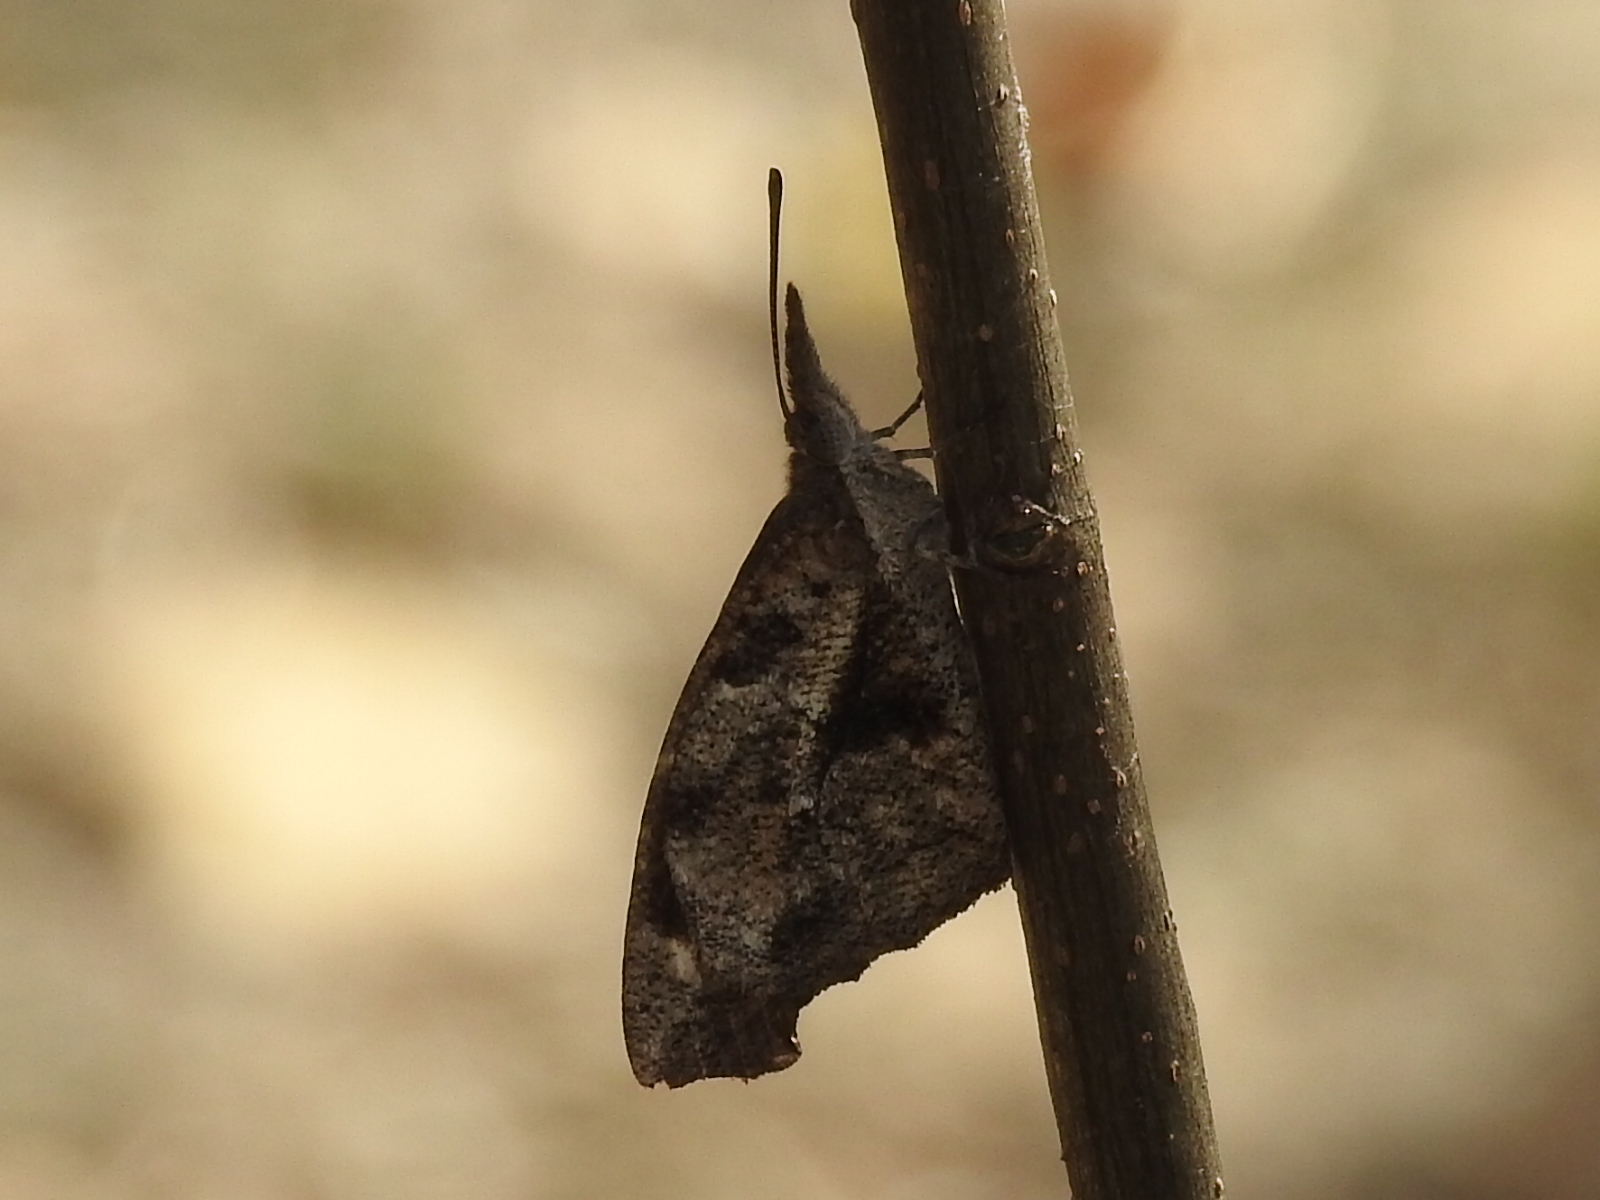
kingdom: Animalia
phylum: Arthropoda
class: Insecta
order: Lepidoptera
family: Nymphalidae
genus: Libytheana
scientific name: Libytheana carinenta
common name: American snout
